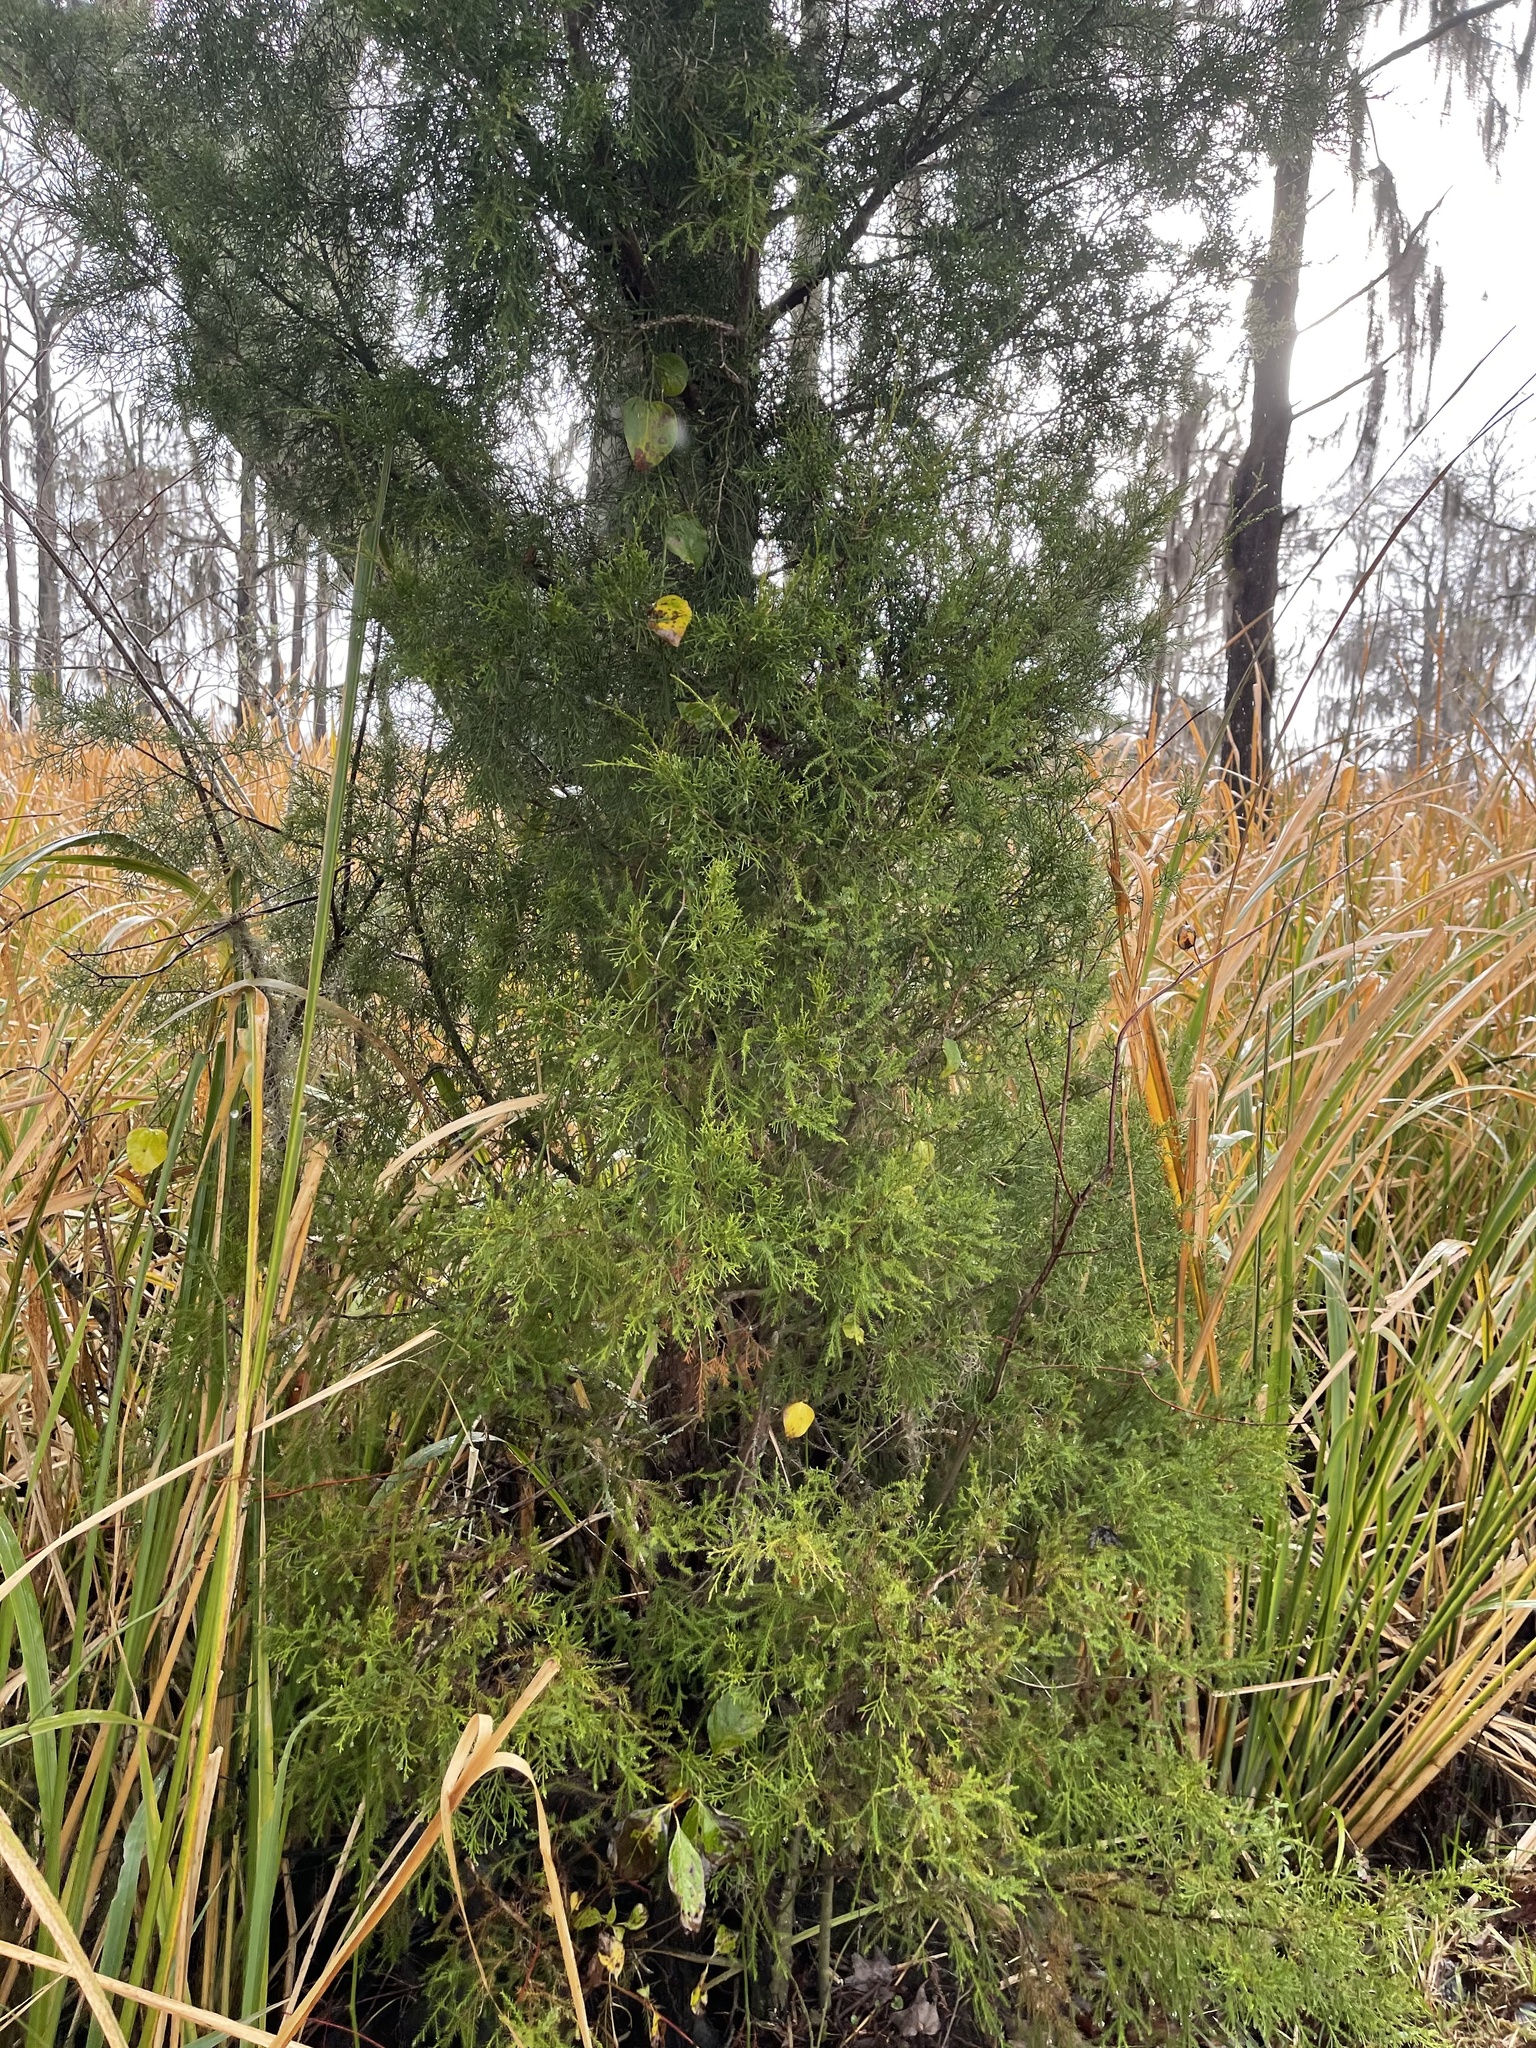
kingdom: Plantae
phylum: Tracheophyta
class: Pinopsida
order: Pinales
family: Cupressaceae
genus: Juniperus
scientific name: Juniperus virginiana
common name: Red juniper
